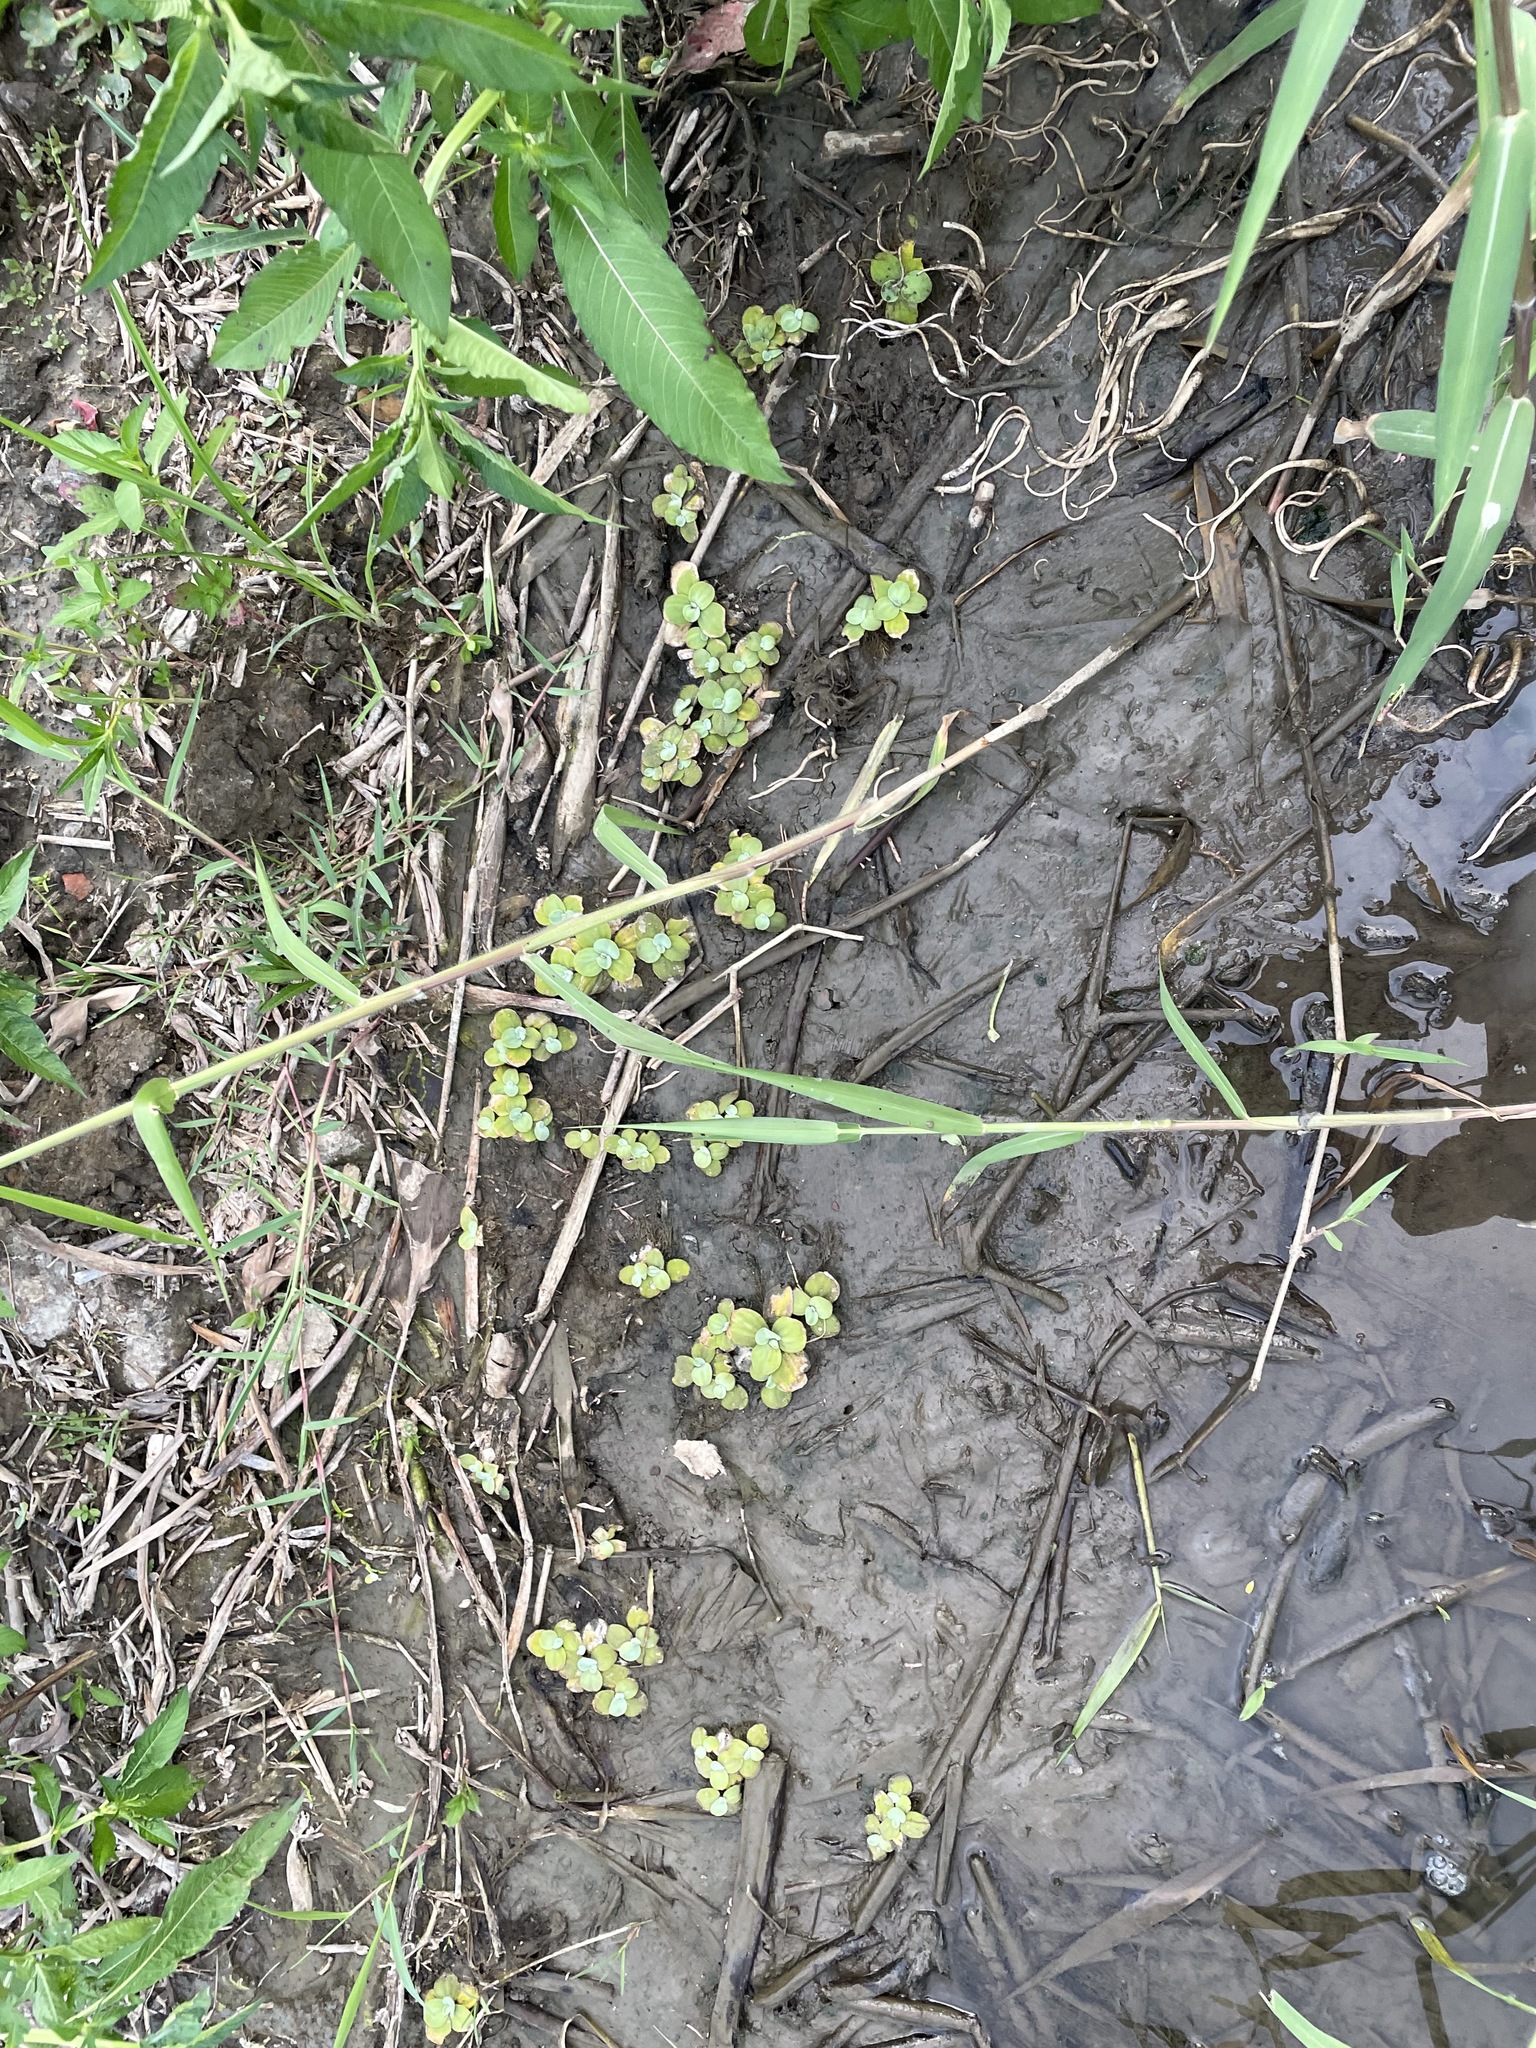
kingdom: Plantae
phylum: Tracheophyta
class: Liliopsida
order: Alismatales
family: Araceae
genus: Pistia
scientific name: Pistia stratiotes
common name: Water lettuce
